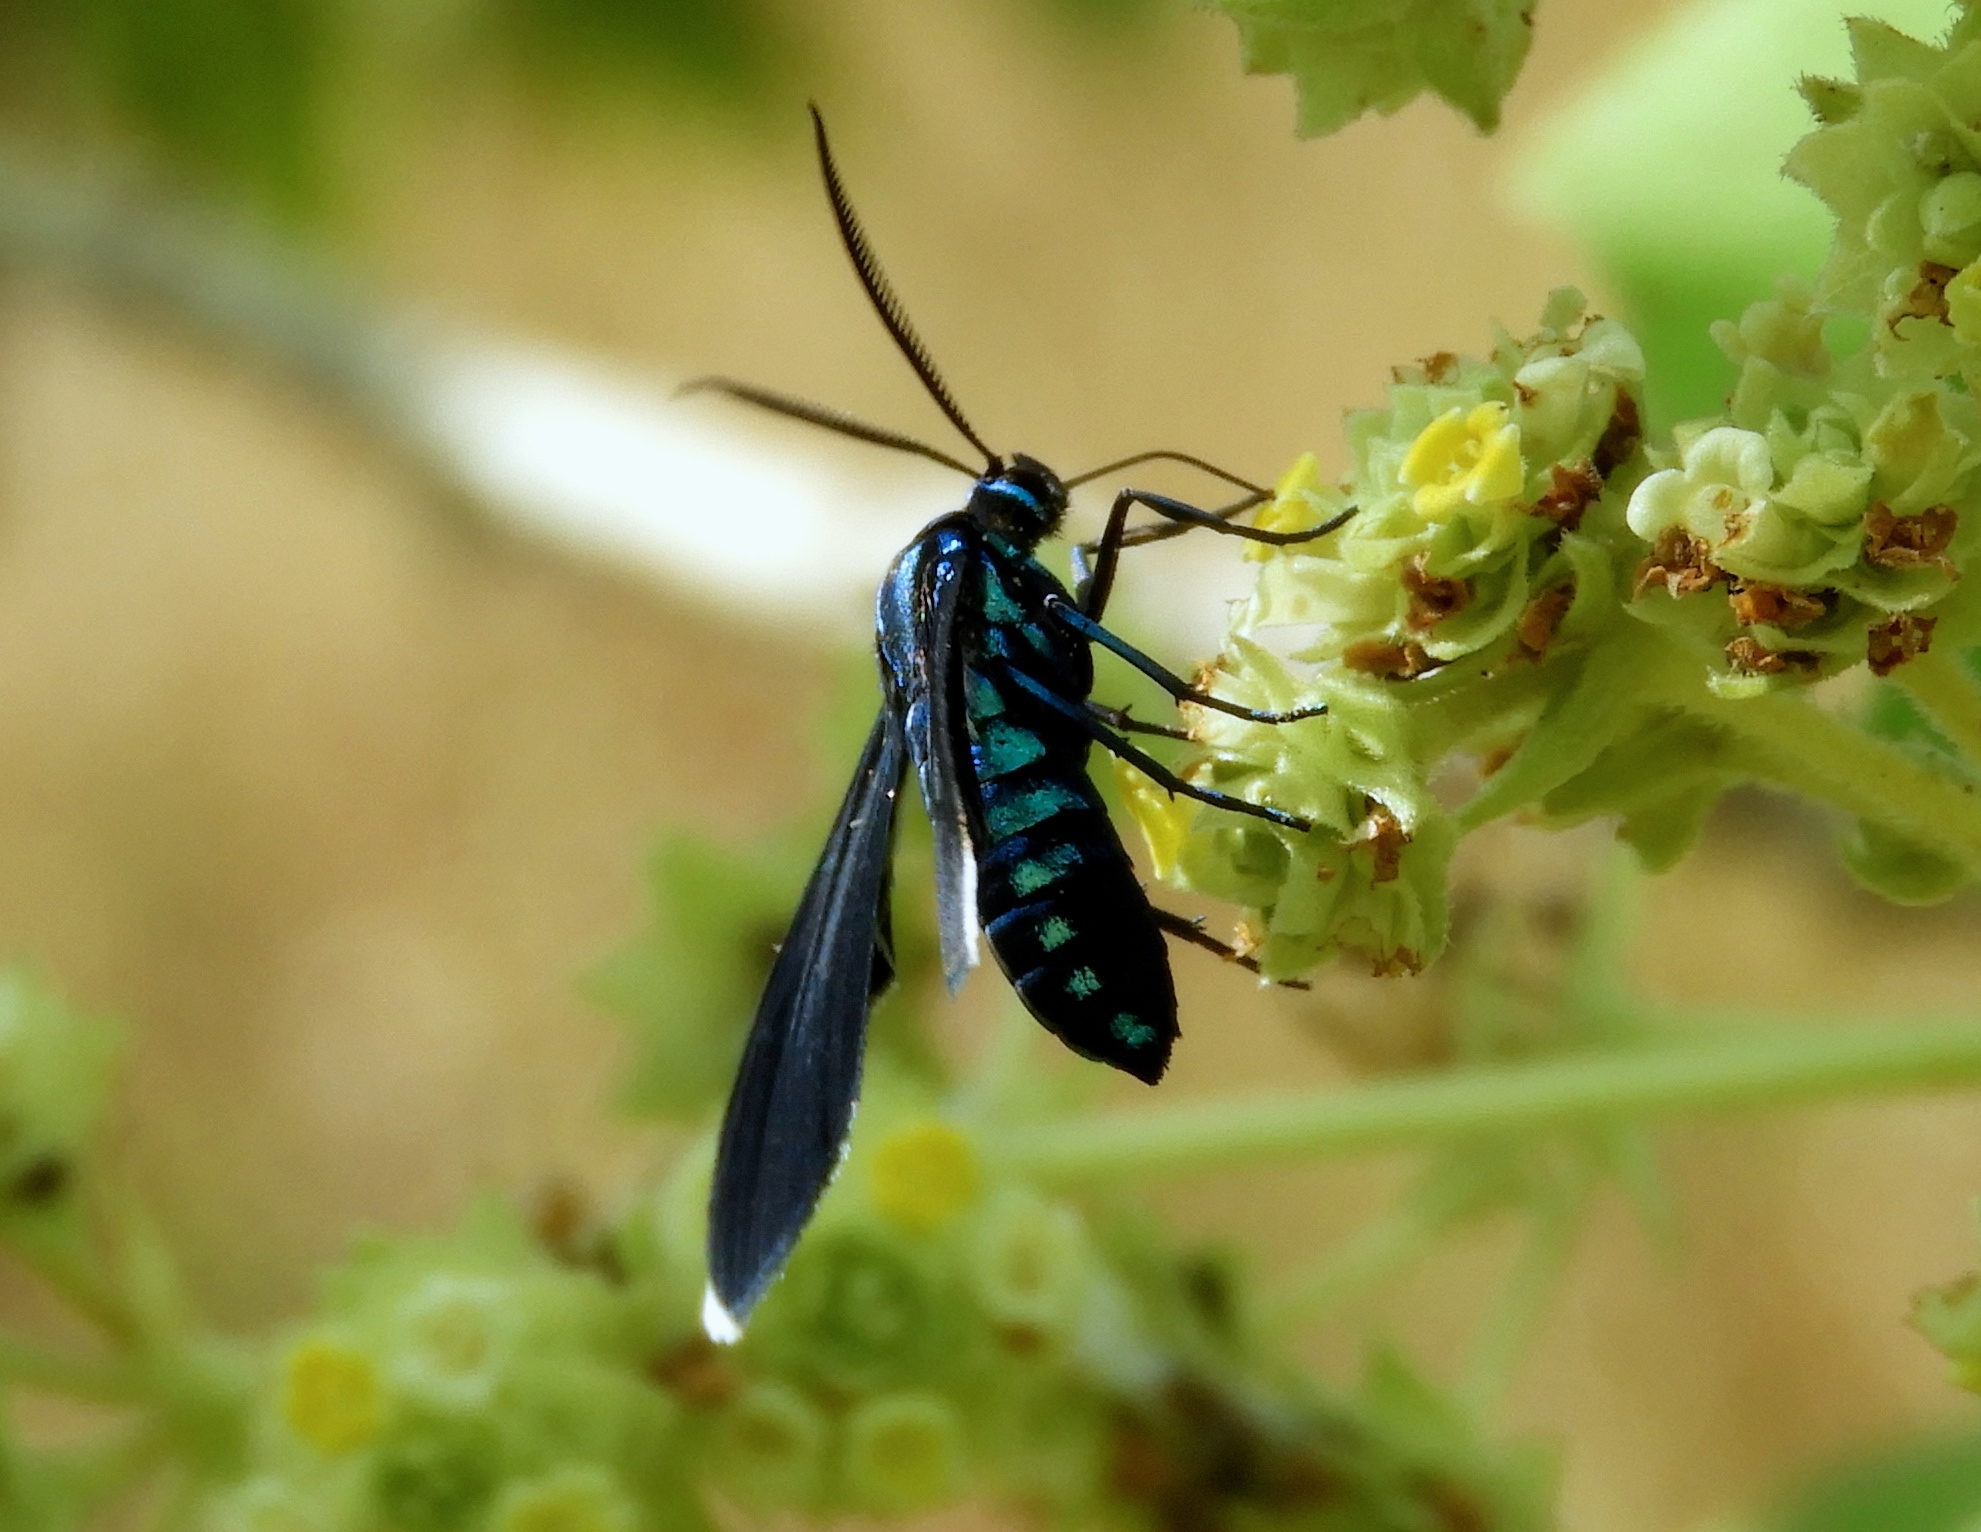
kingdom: Animalia
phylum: Arthropoda
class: Insecta
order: Lepidoptera
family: Erebidae
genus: Uranophora
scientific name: Uranophora leucotela
